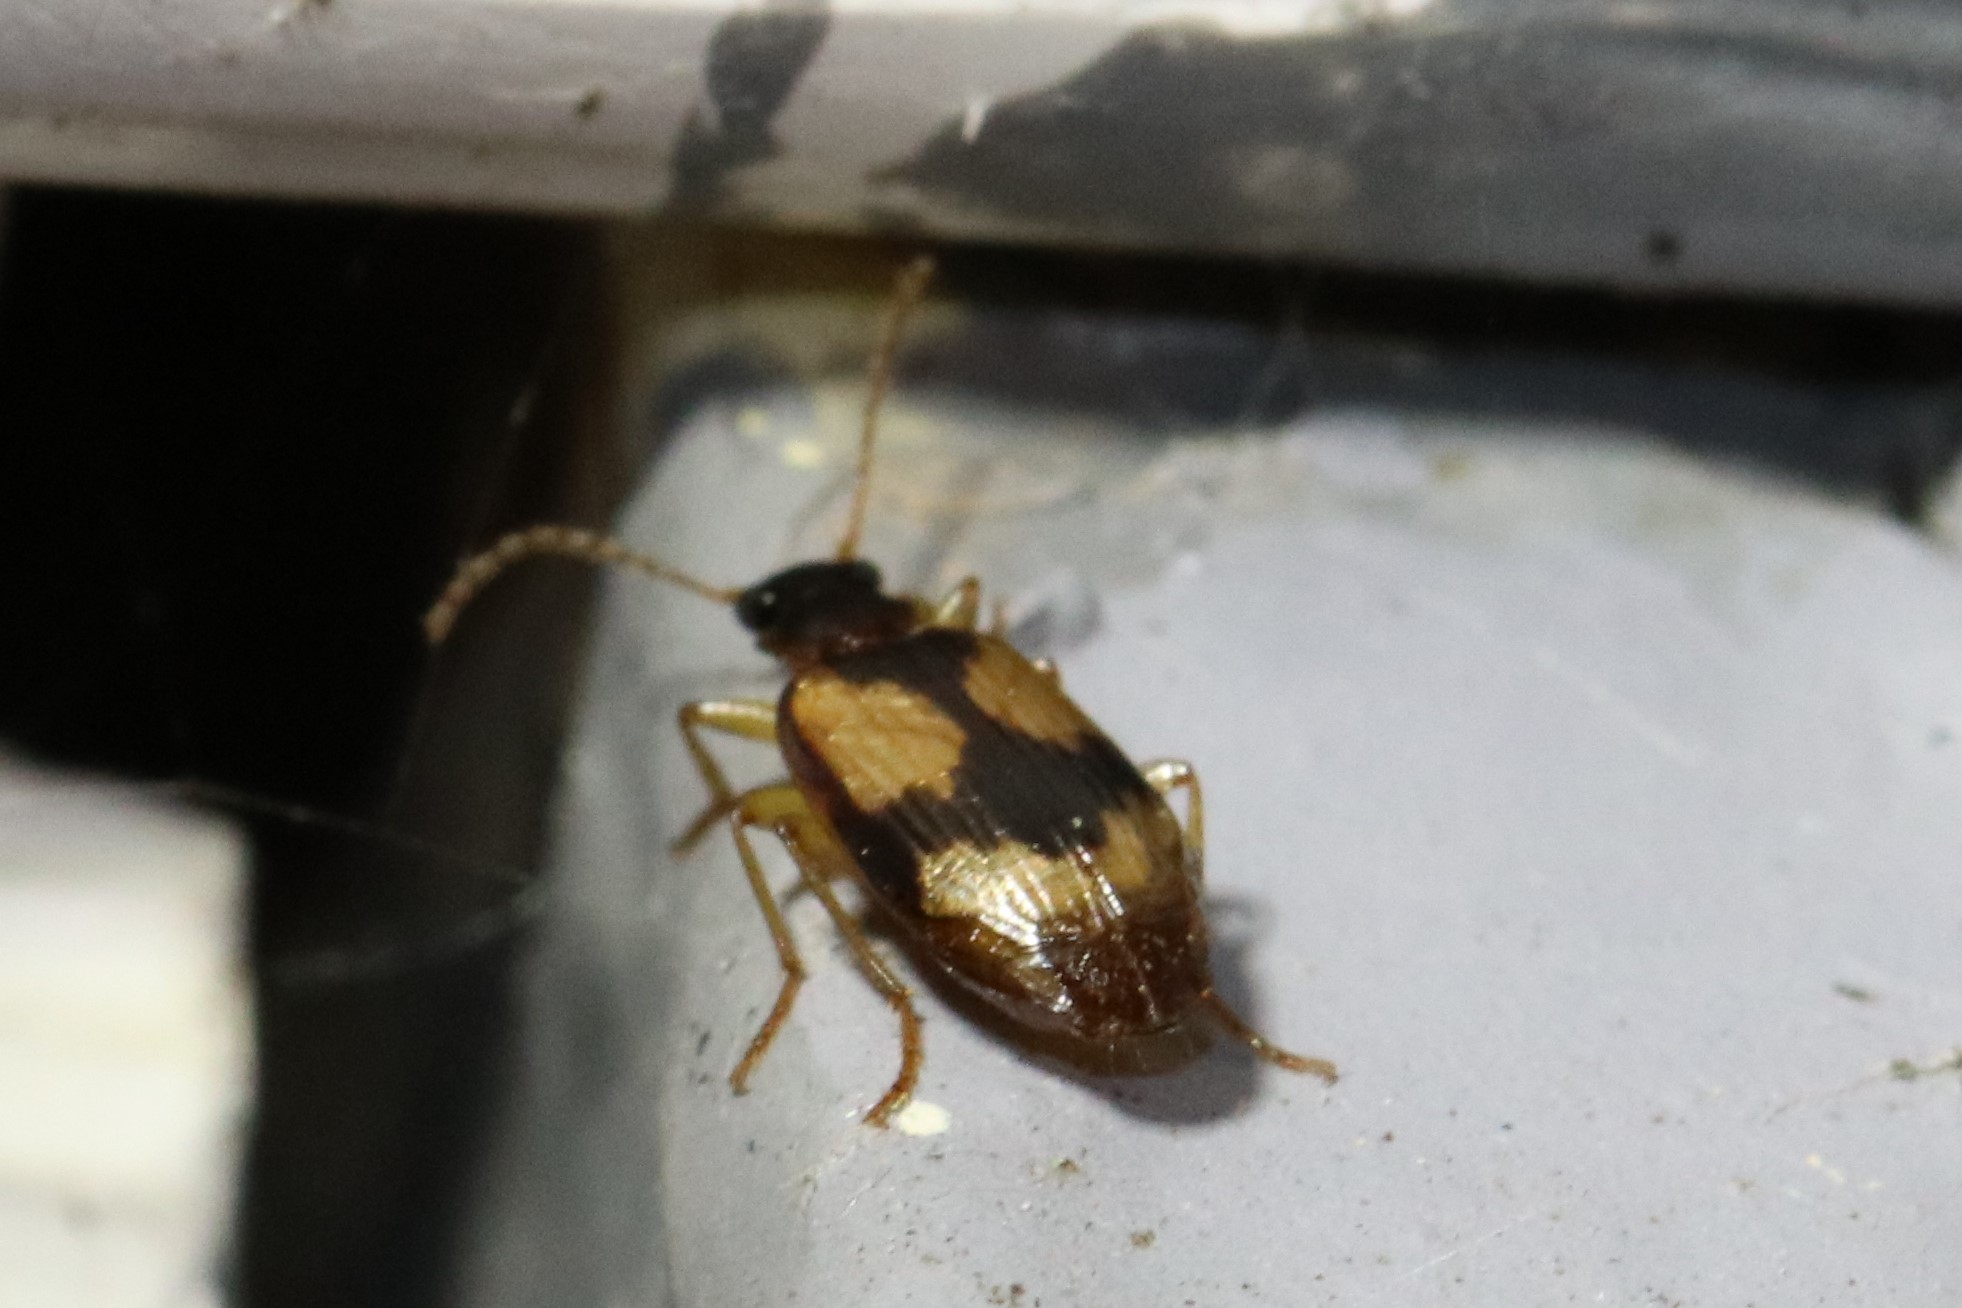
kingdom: Animalia
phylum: Arthropoda
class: Insecta
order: Coleoptera
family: Carabidae
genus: Lebia
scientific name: Lebia fuscata
